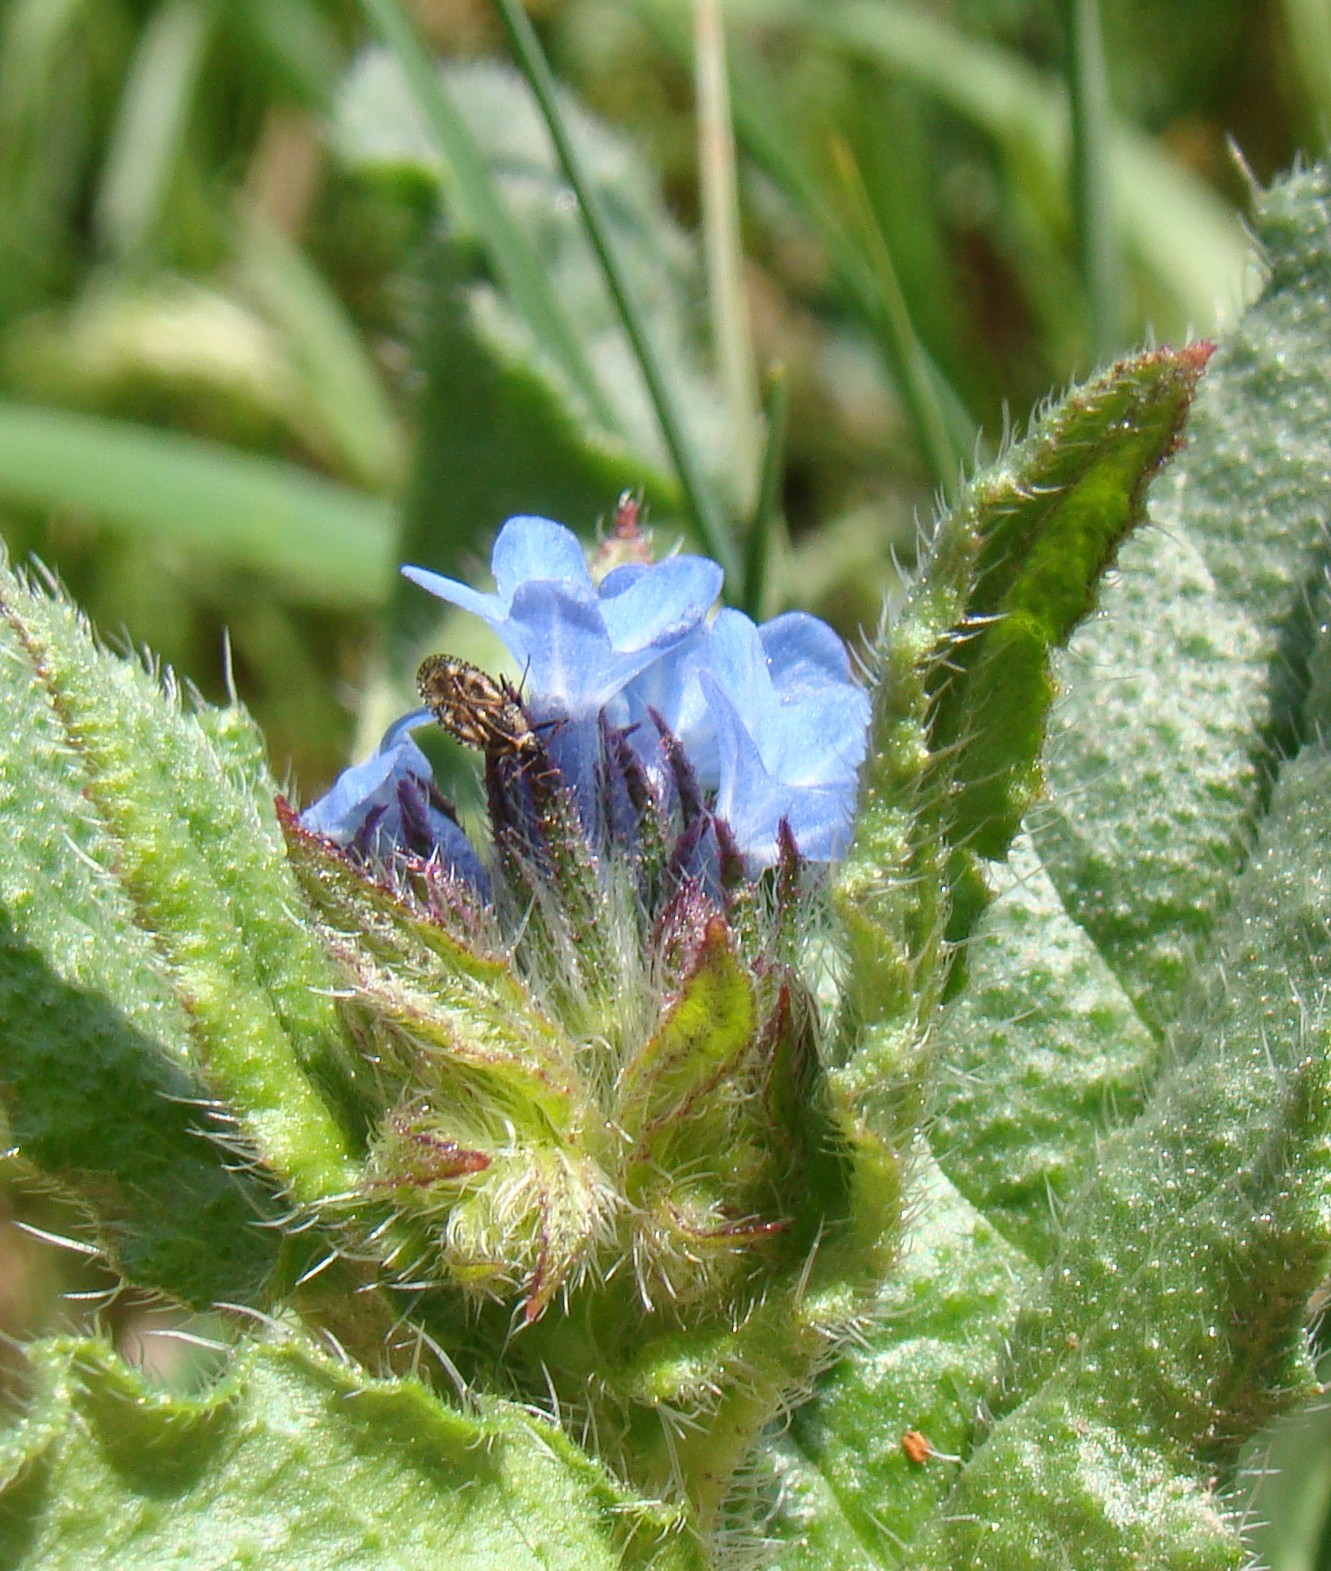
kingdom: Plantae
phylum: Tracheophyta
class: Magnoliopsida
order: Boraginales
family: Boraginaceae
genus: Lycopsis
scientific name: Lycopsis arvensis
